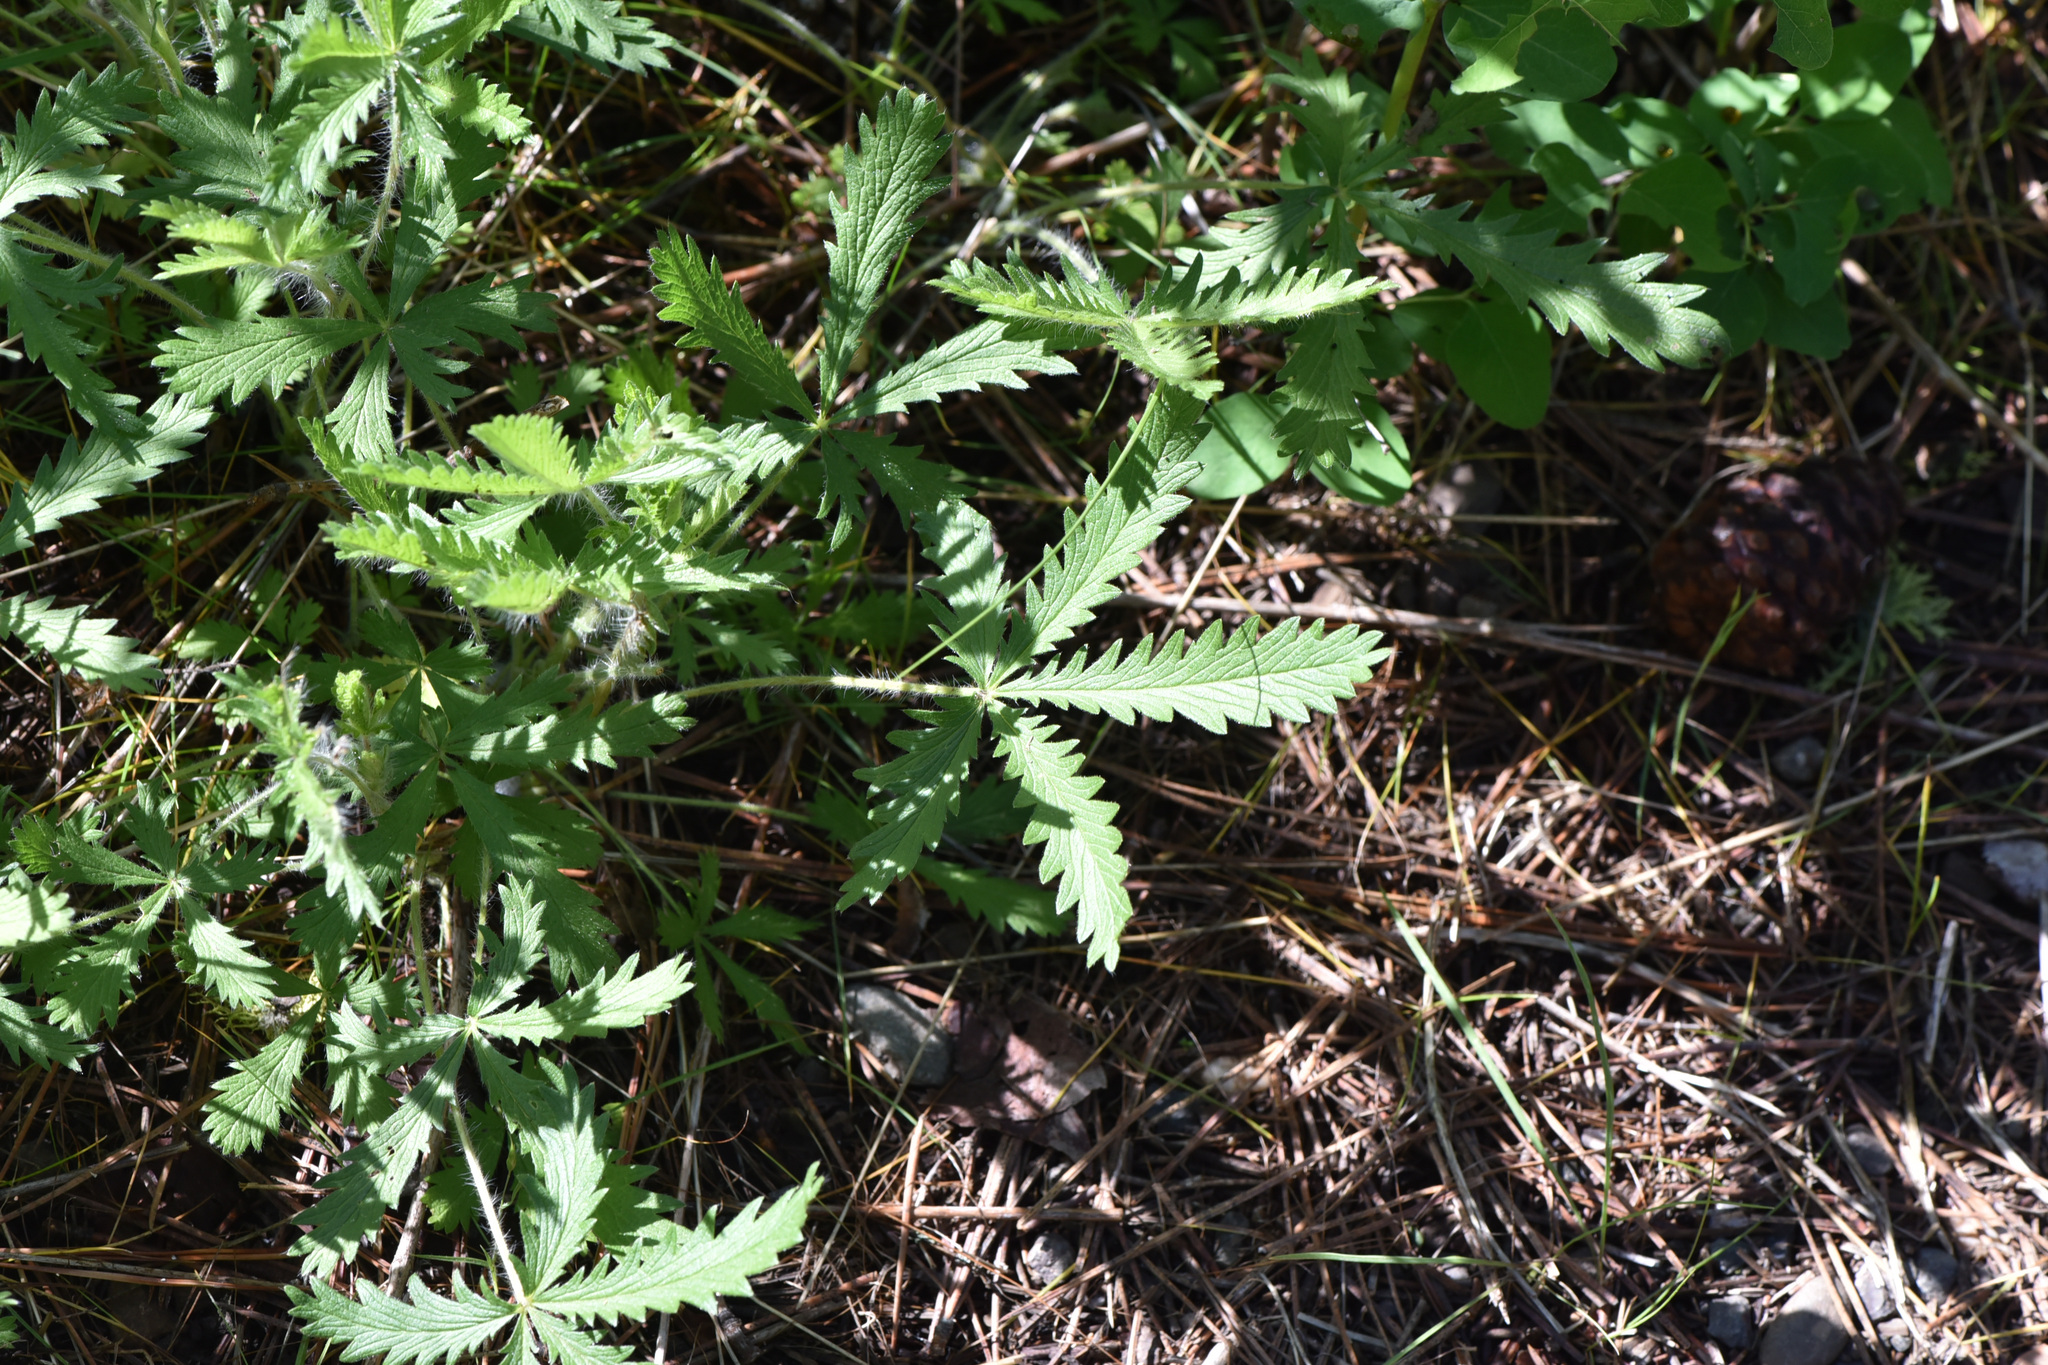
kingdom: Plantae
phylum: Tracheophyta
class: Magnoliopsida
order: Rosales
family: Rosaceae
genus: Potentilla
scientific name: Potentilla recta
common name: Sulphur cinquefoil
